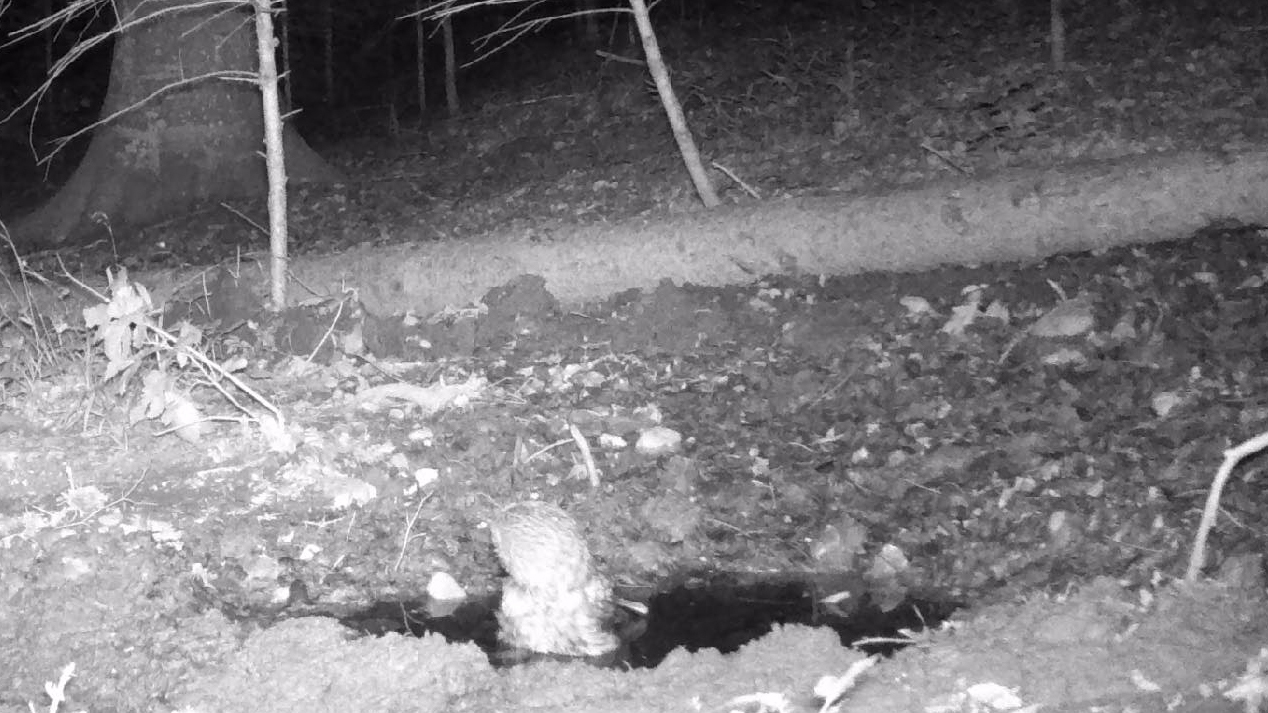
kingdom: Animalia
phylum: Chordata
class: Aves
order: Strigiformes
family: Strigidae
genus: Strix
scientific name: Strix aluco
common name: Tawny owl
